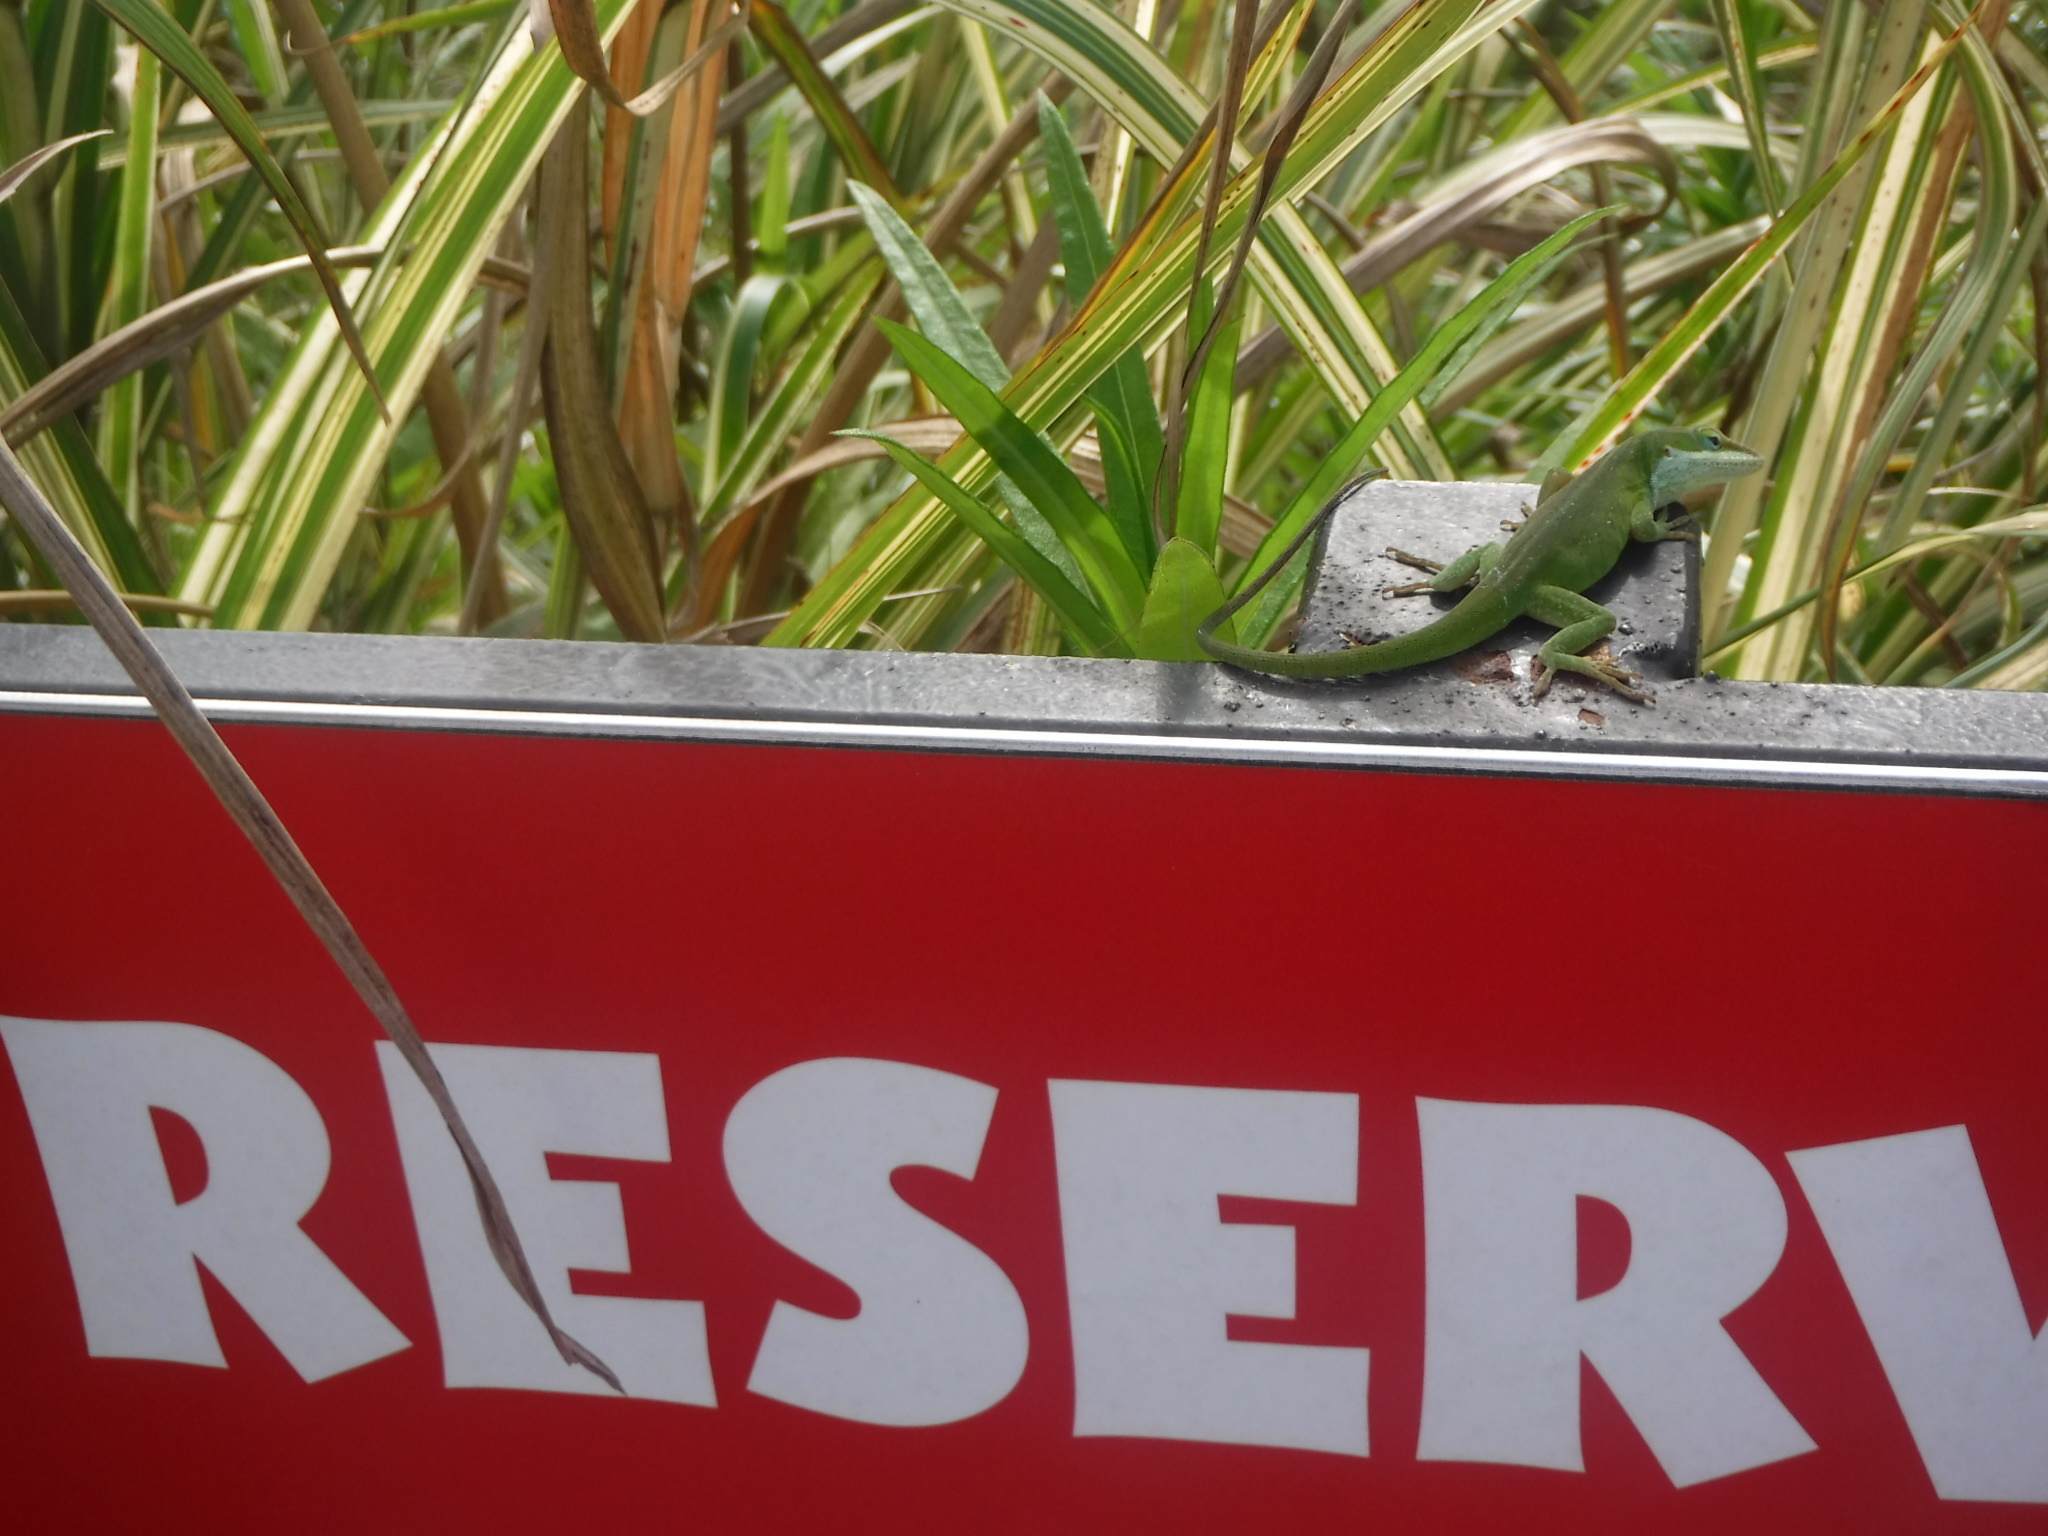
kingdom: Animalia
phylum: Chordata
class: Squamata
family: Dactyloidae
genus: Anolis
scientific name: Anolis carolinensis
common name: Green anole
